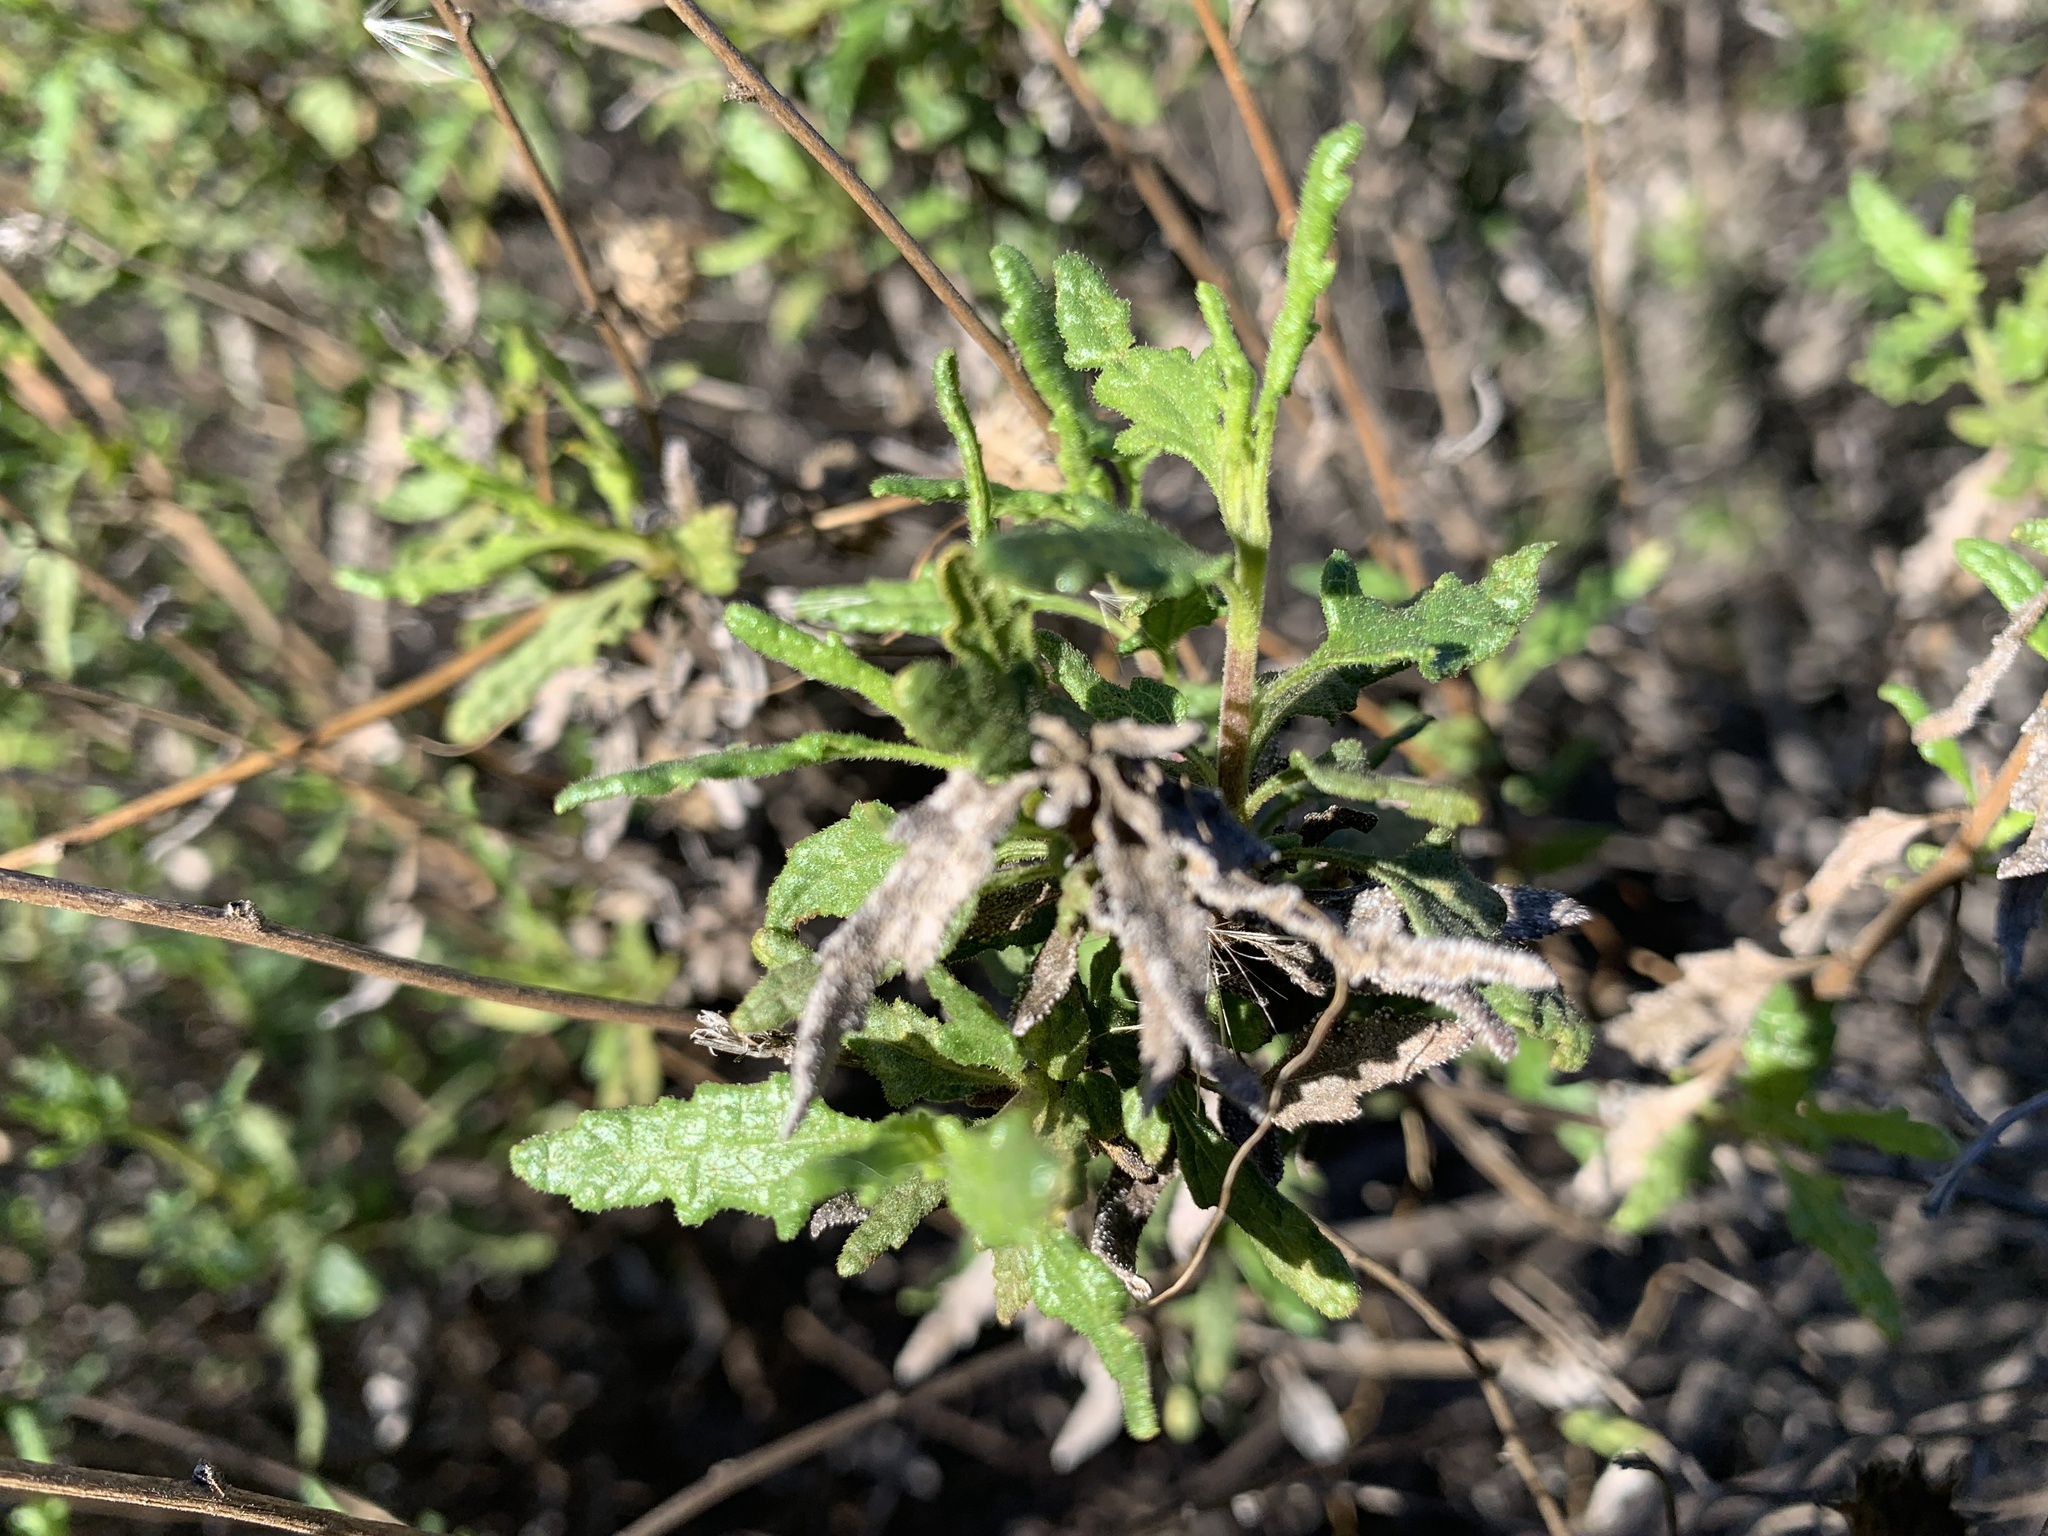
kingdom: Plantae
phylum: Tracheophyta
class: Magnoliopsida
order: Asterales
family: Asteraceae
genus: Bahiopsis
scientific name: Bahiopsis laciniata
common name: San diego county viguiera
